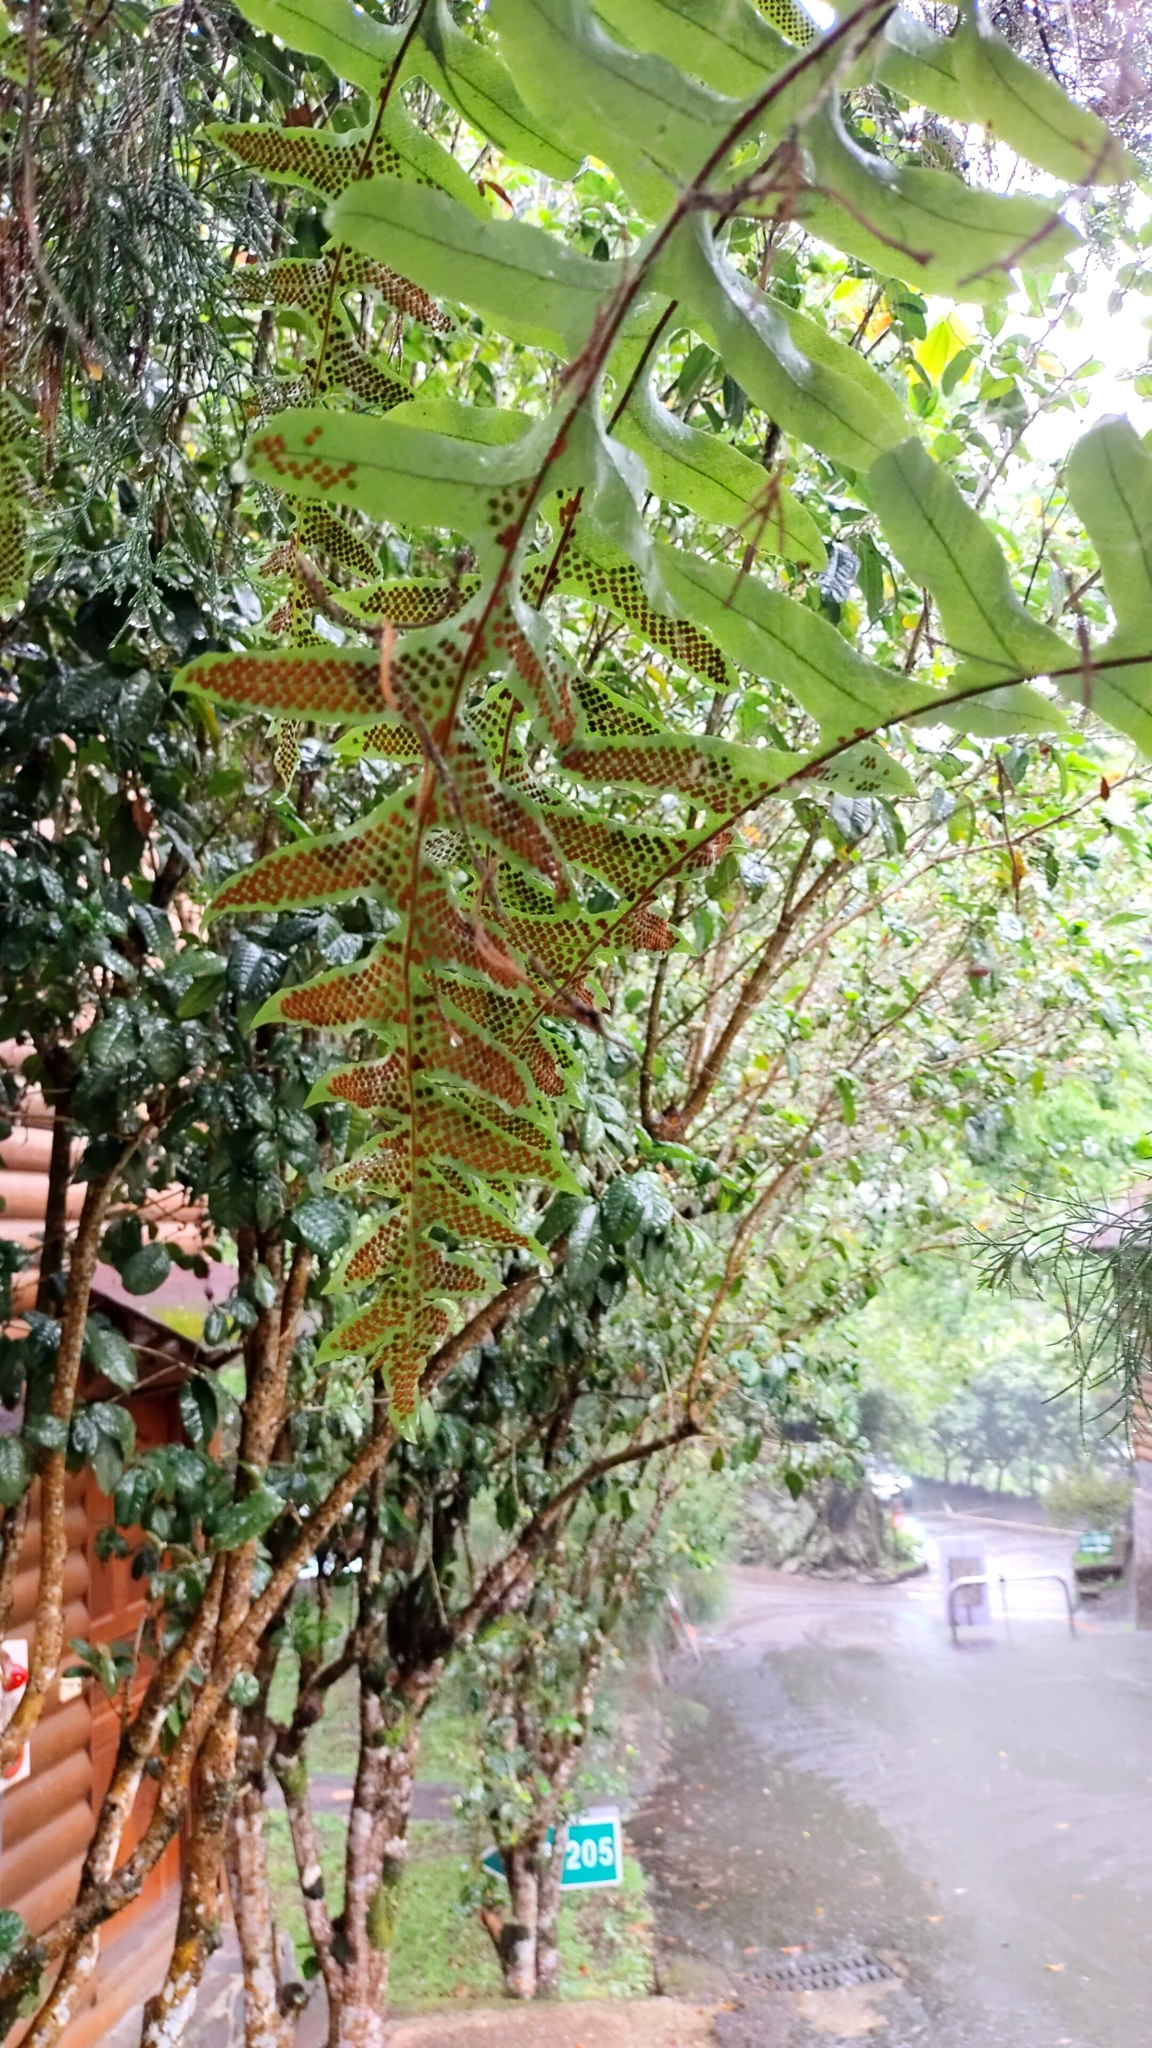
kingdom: Plantae
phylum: Tracheophyta
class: Polypodiopsida
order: Polypodiales
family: Polypodiaceae
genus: Drynaria
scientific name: Drynaria roosii
